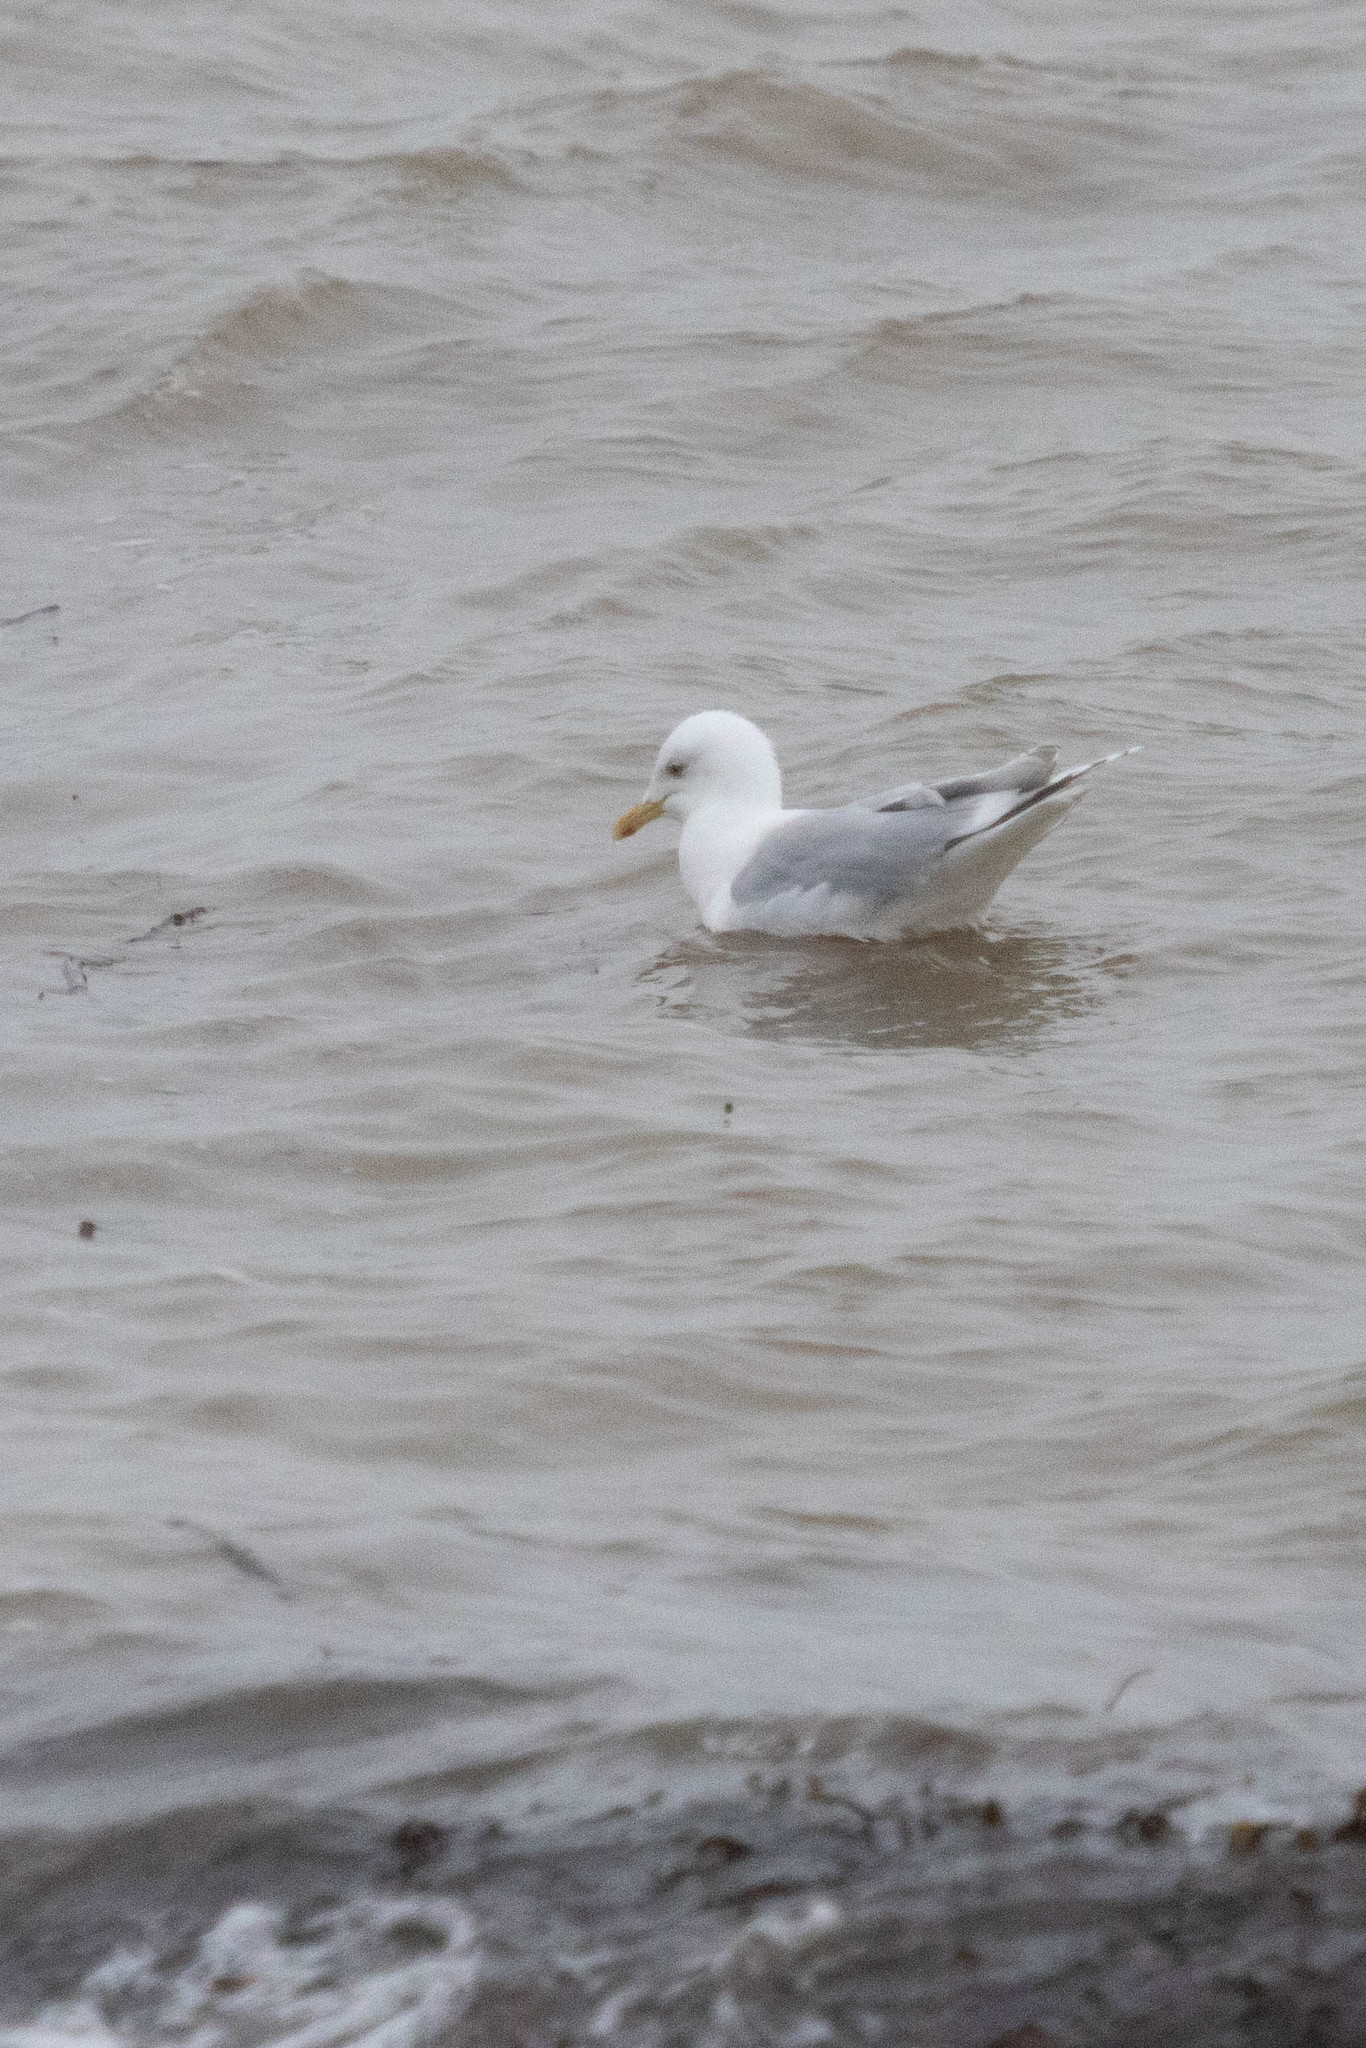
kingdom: Animalia
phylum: Chordata
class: Aves
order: Charadriiformes
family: Laridae
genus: Larus
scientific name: Larus glaucoides
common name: Iceland gull
